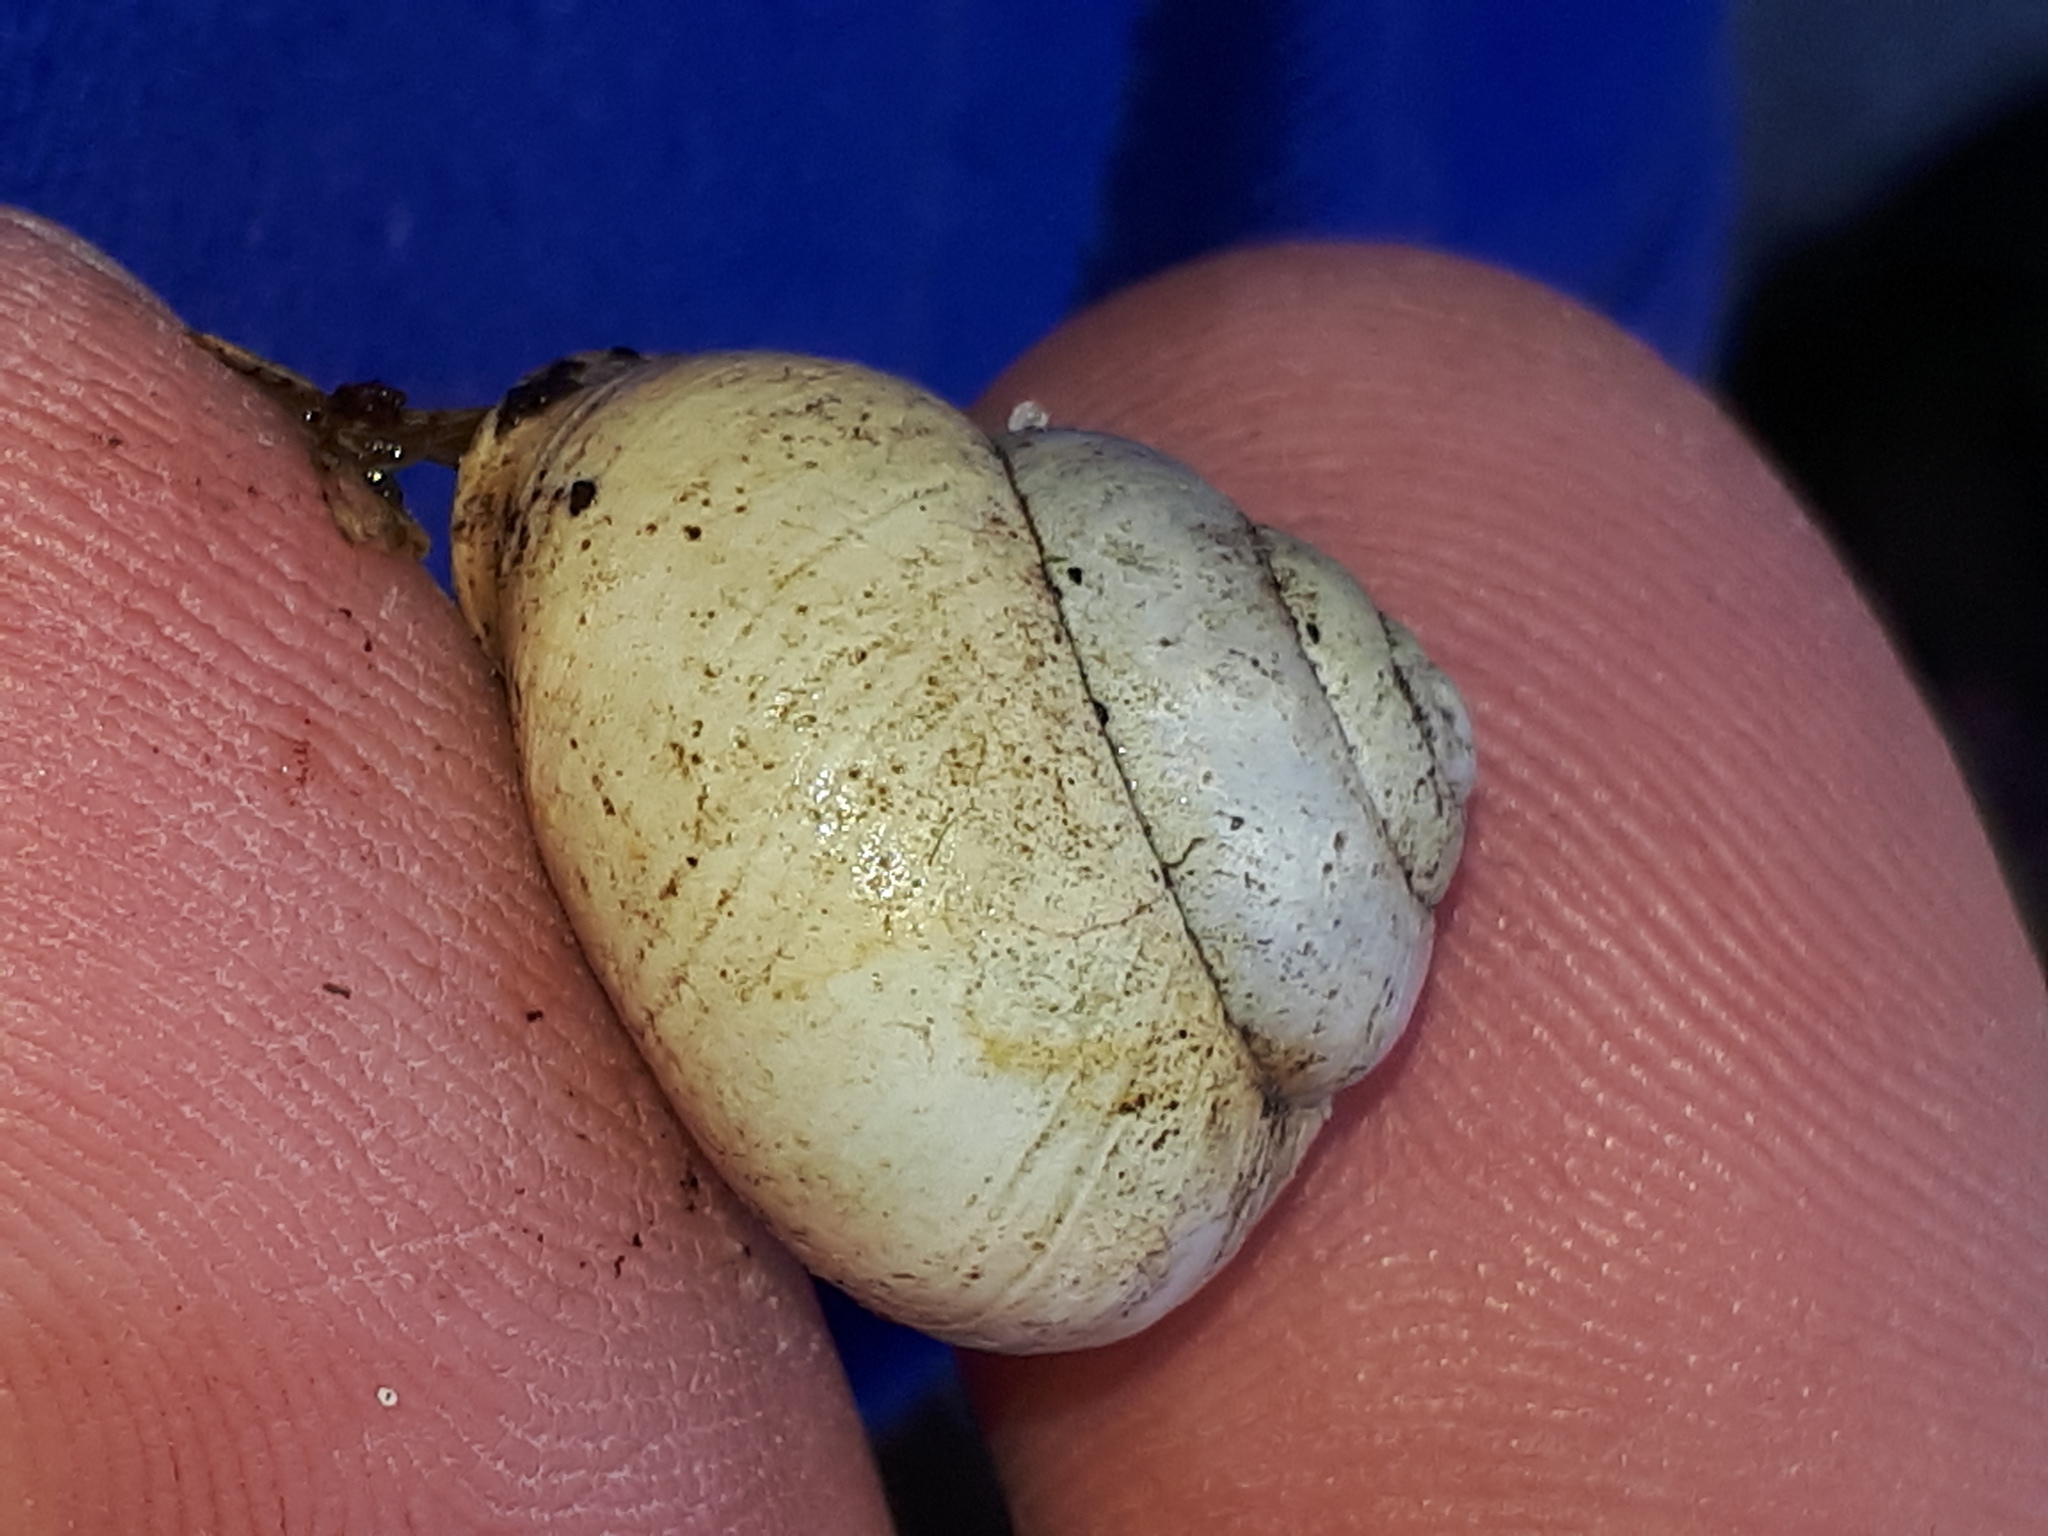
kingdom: Animalia
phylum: Mollusca
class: Gastropoda
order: Stylommatophora
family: Helicidae
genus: Cepaea
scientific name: Cepaea nemoralis
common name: Grovesnail
